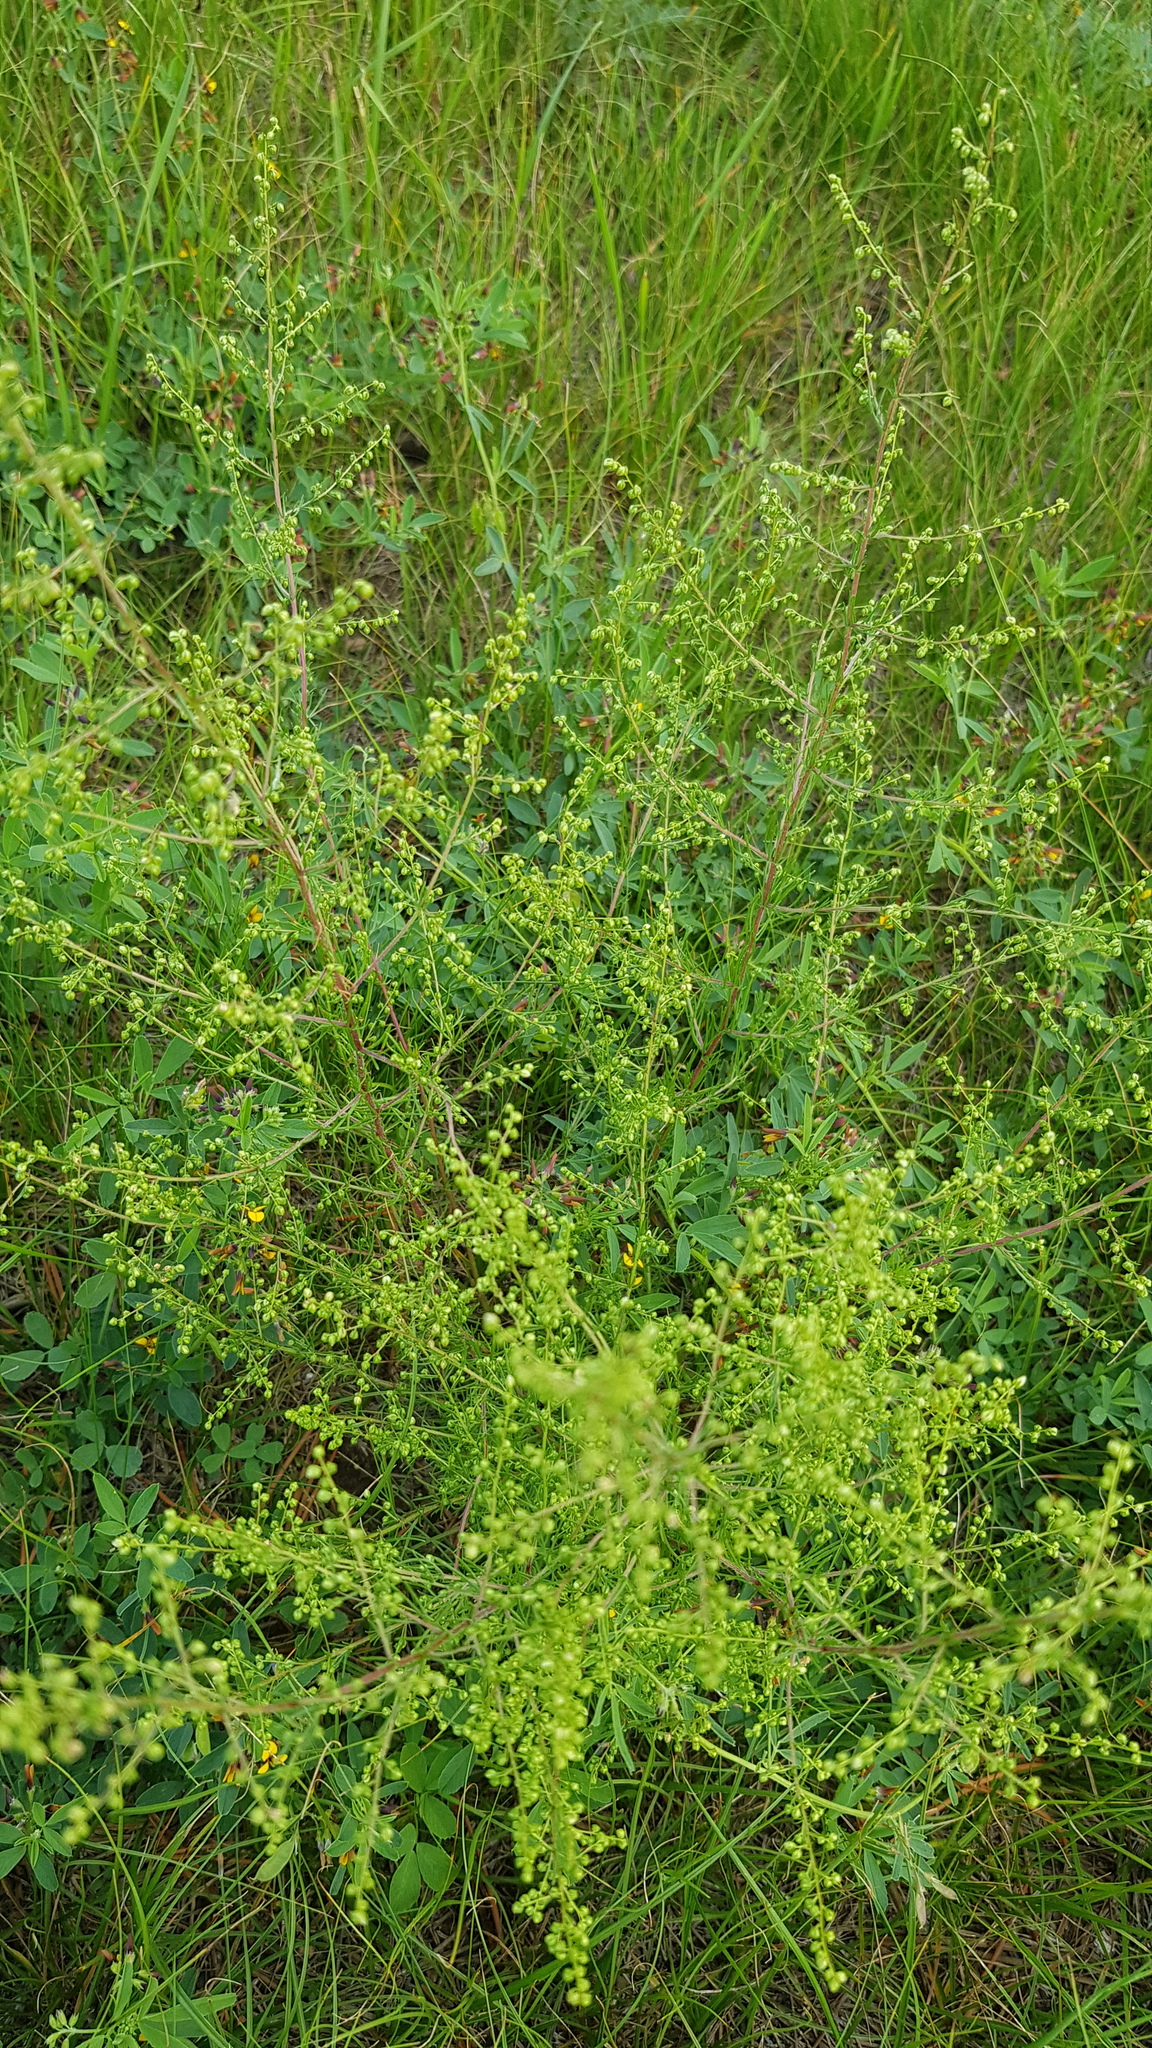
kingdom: Plantae
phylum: Tracheophyta
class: Magnoliopsida
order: Asterales
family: Asteraceae
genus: Artemisia
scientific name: Artemisia scoparia
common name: Redstem wormwood
